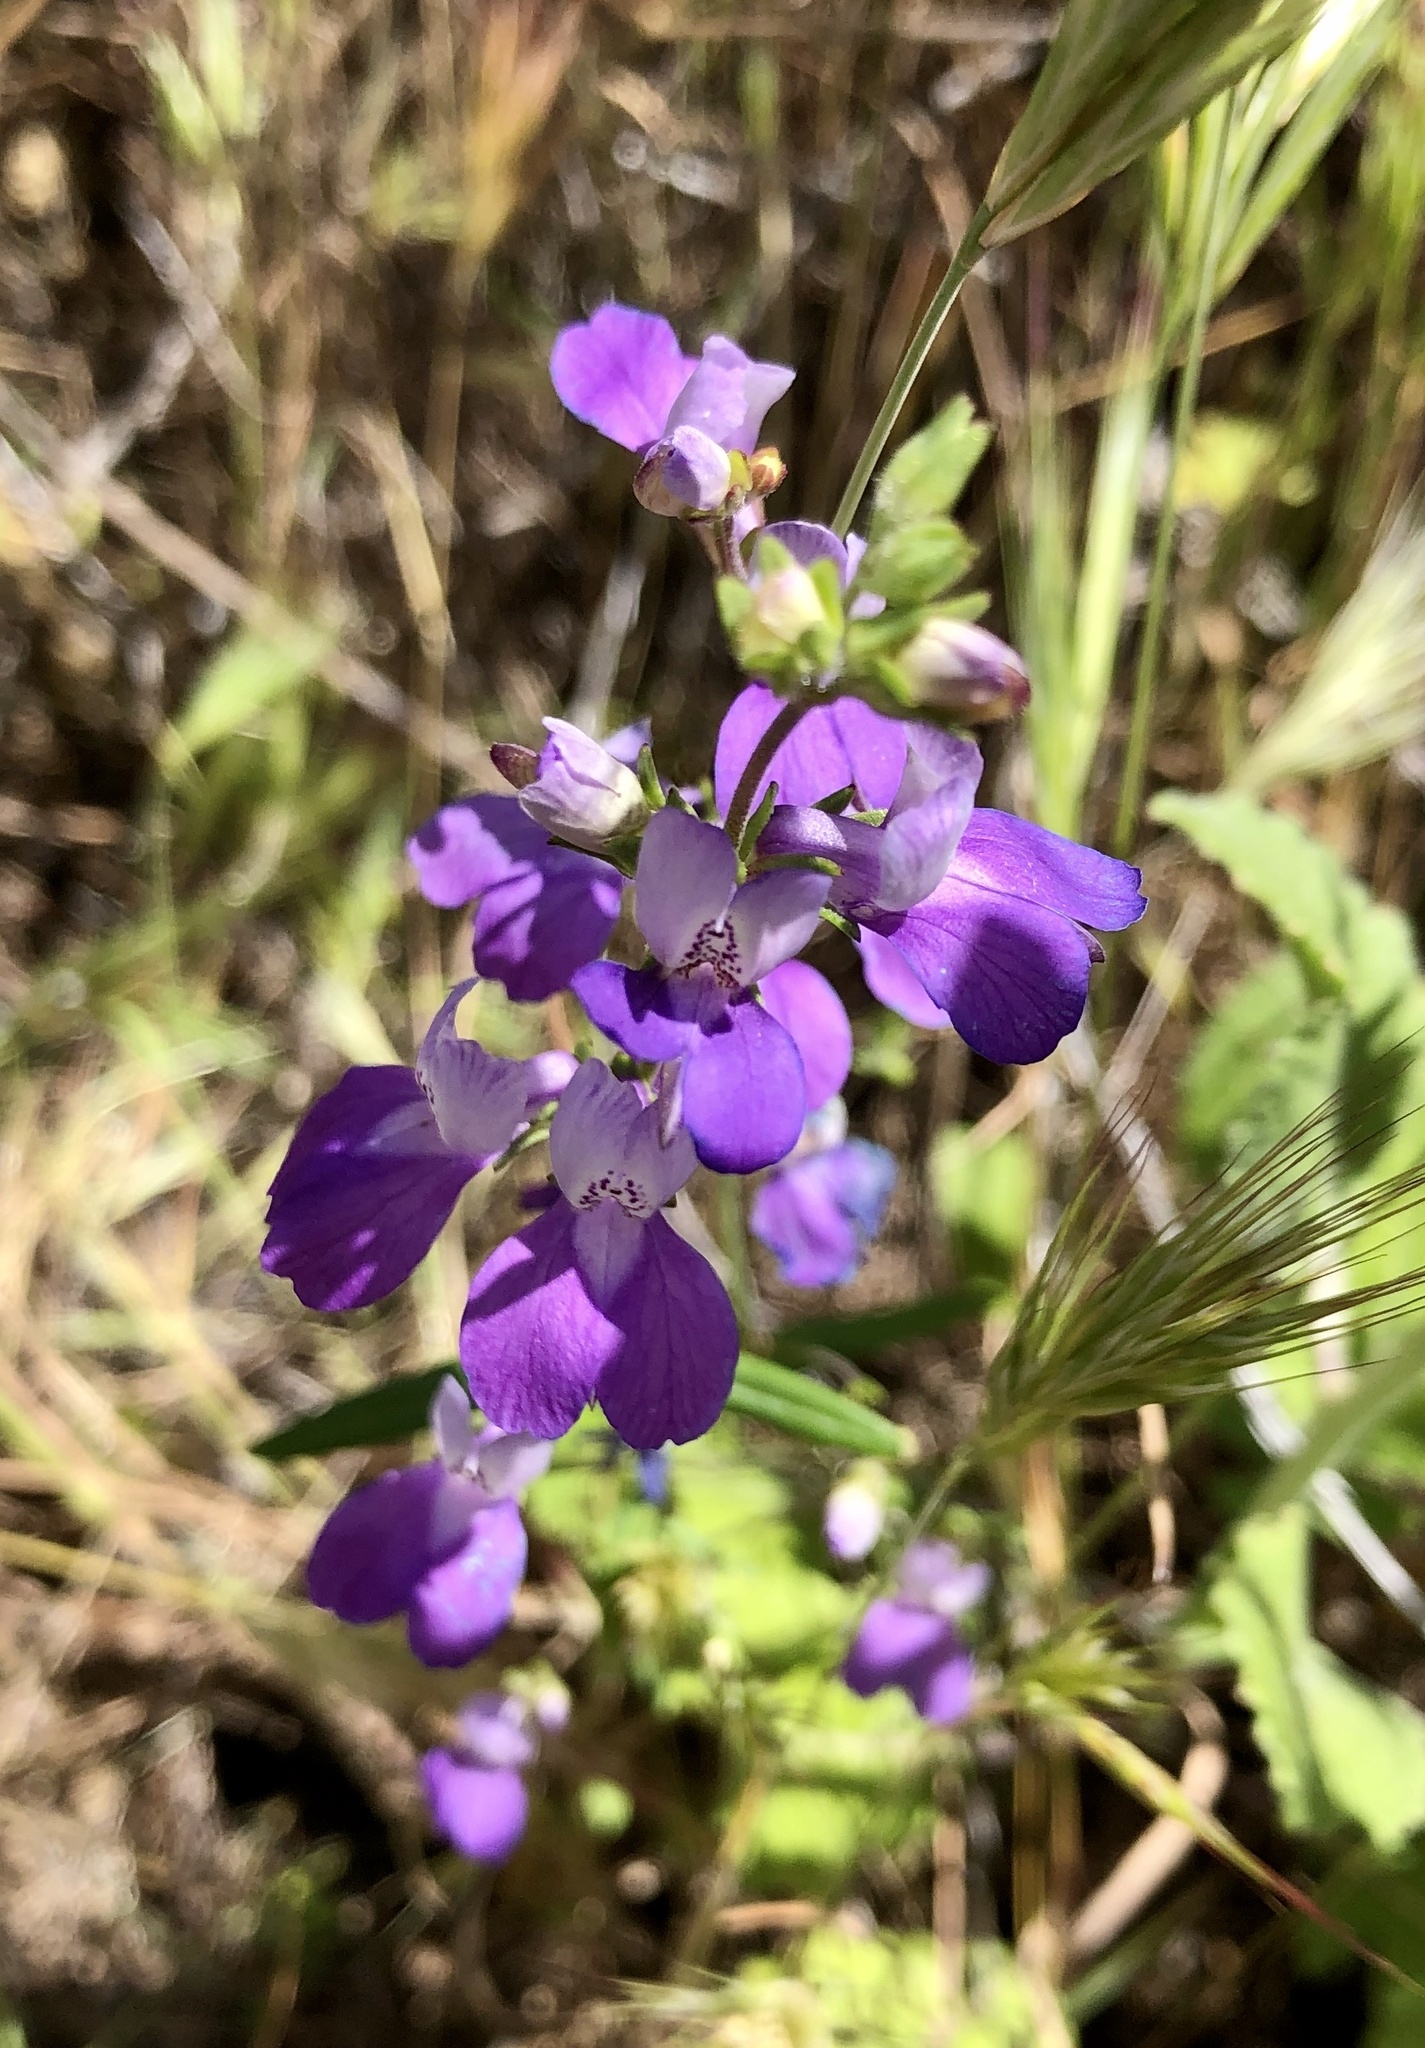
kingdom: Plantae
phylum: Tracheophyta
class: Magnoliopsida
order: Lamiales
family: Plantaginaceae
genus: Collinsia
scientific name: Collinsia concolor
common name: Chinese houses
